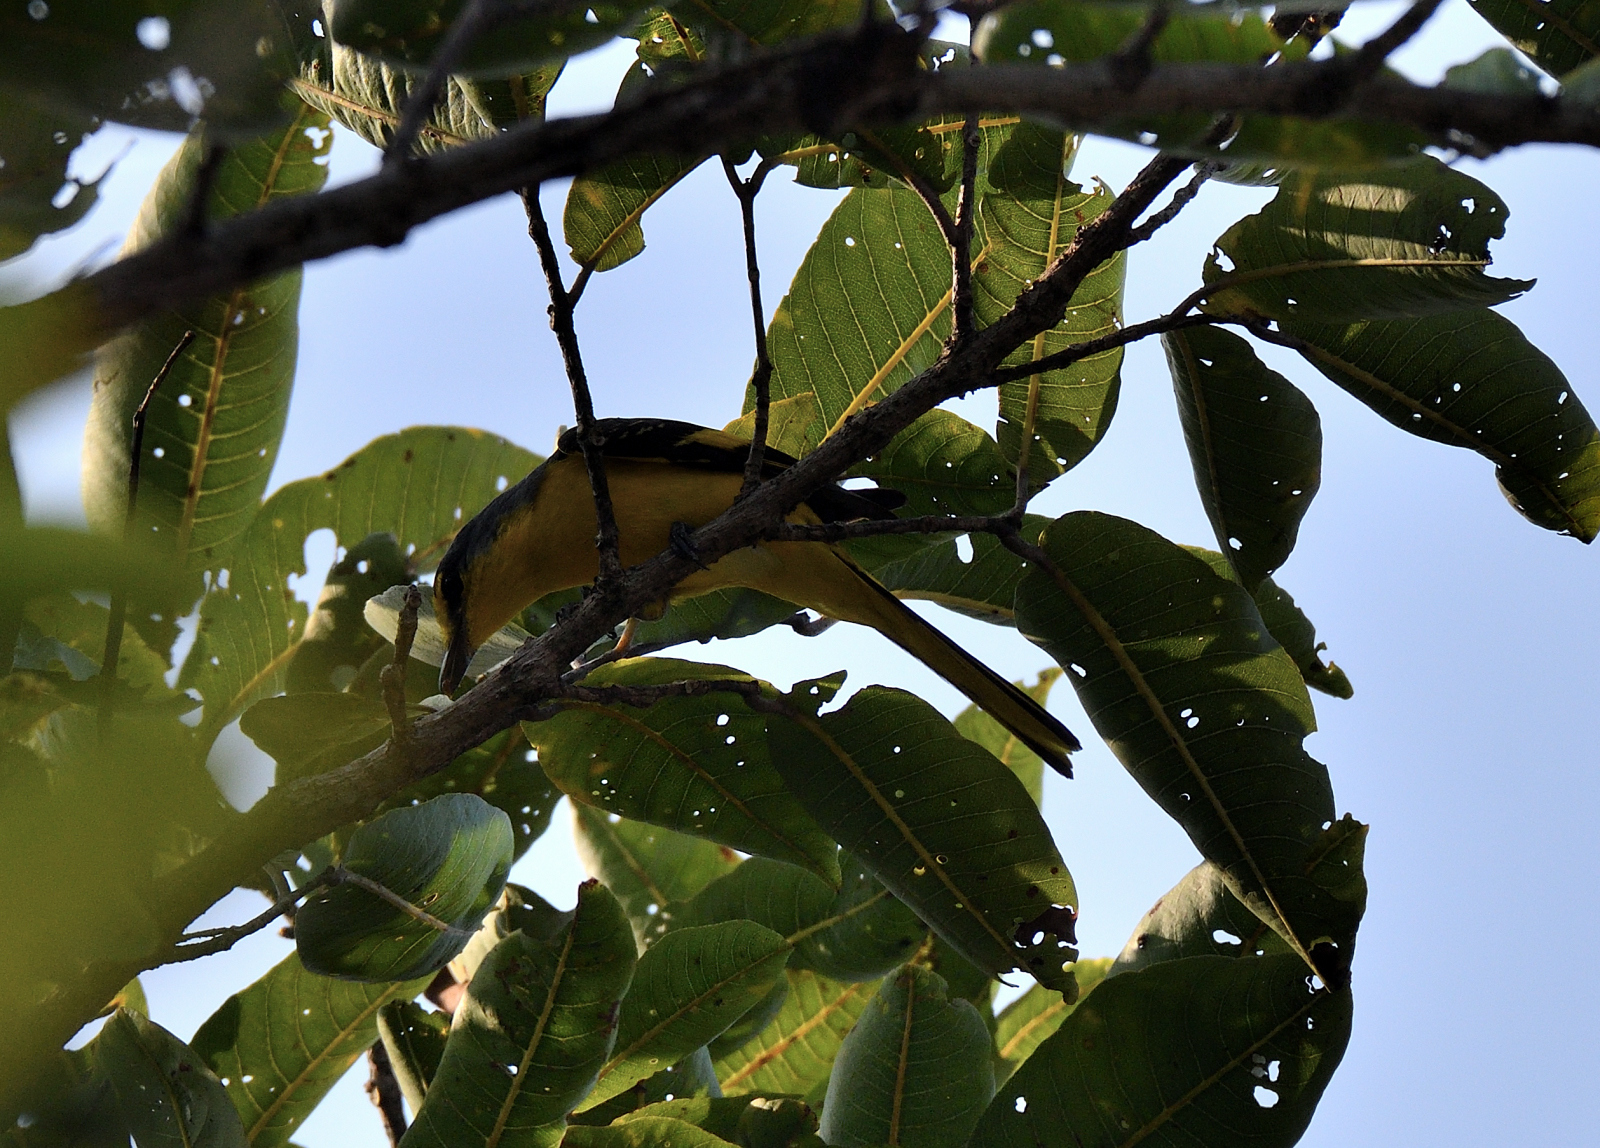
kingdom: Animalia
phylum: Chordata
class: Aves
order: Passeriformes
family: Campephagidae
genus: Pericrocotus
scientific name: Pericrocotus flammeus
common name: Orange minivet
